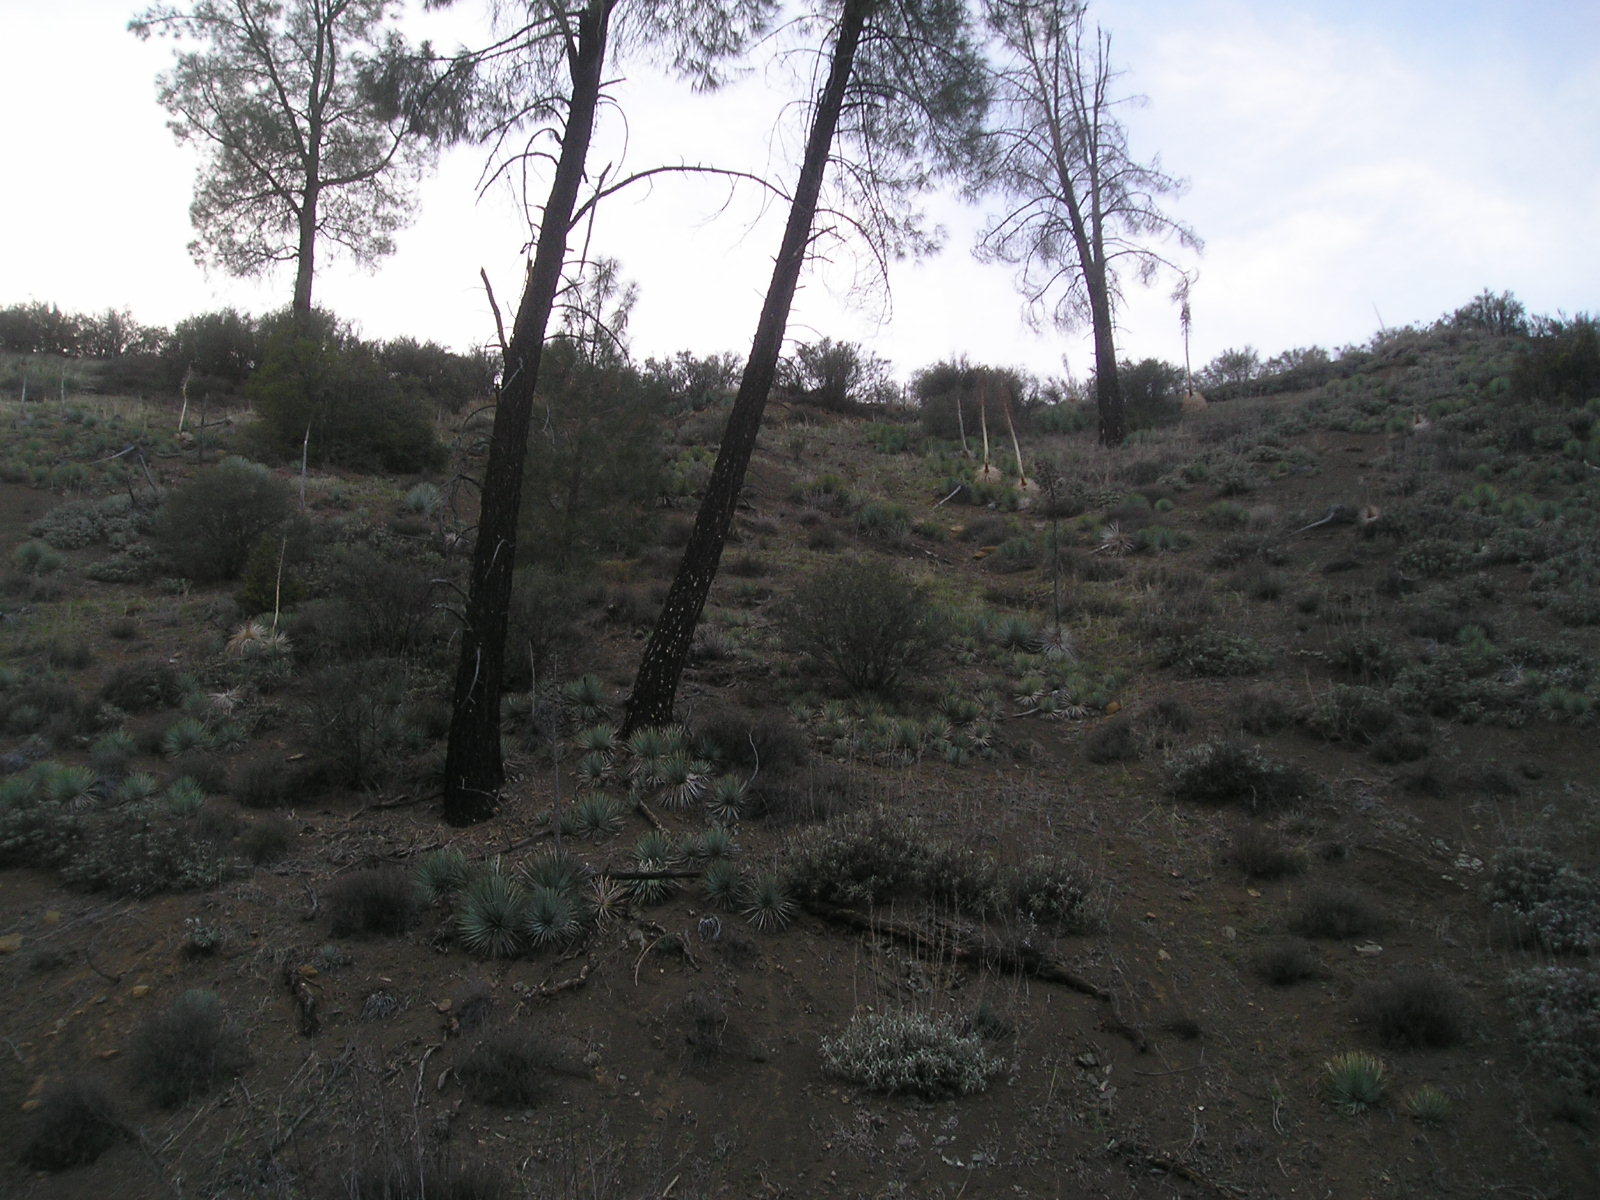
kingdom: Plantae
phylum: Tracheophyta
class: Magnoliopsida
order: Lamiales
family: Lamiaceae
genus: Salvia
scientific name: Salvia apiana
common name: White sage
